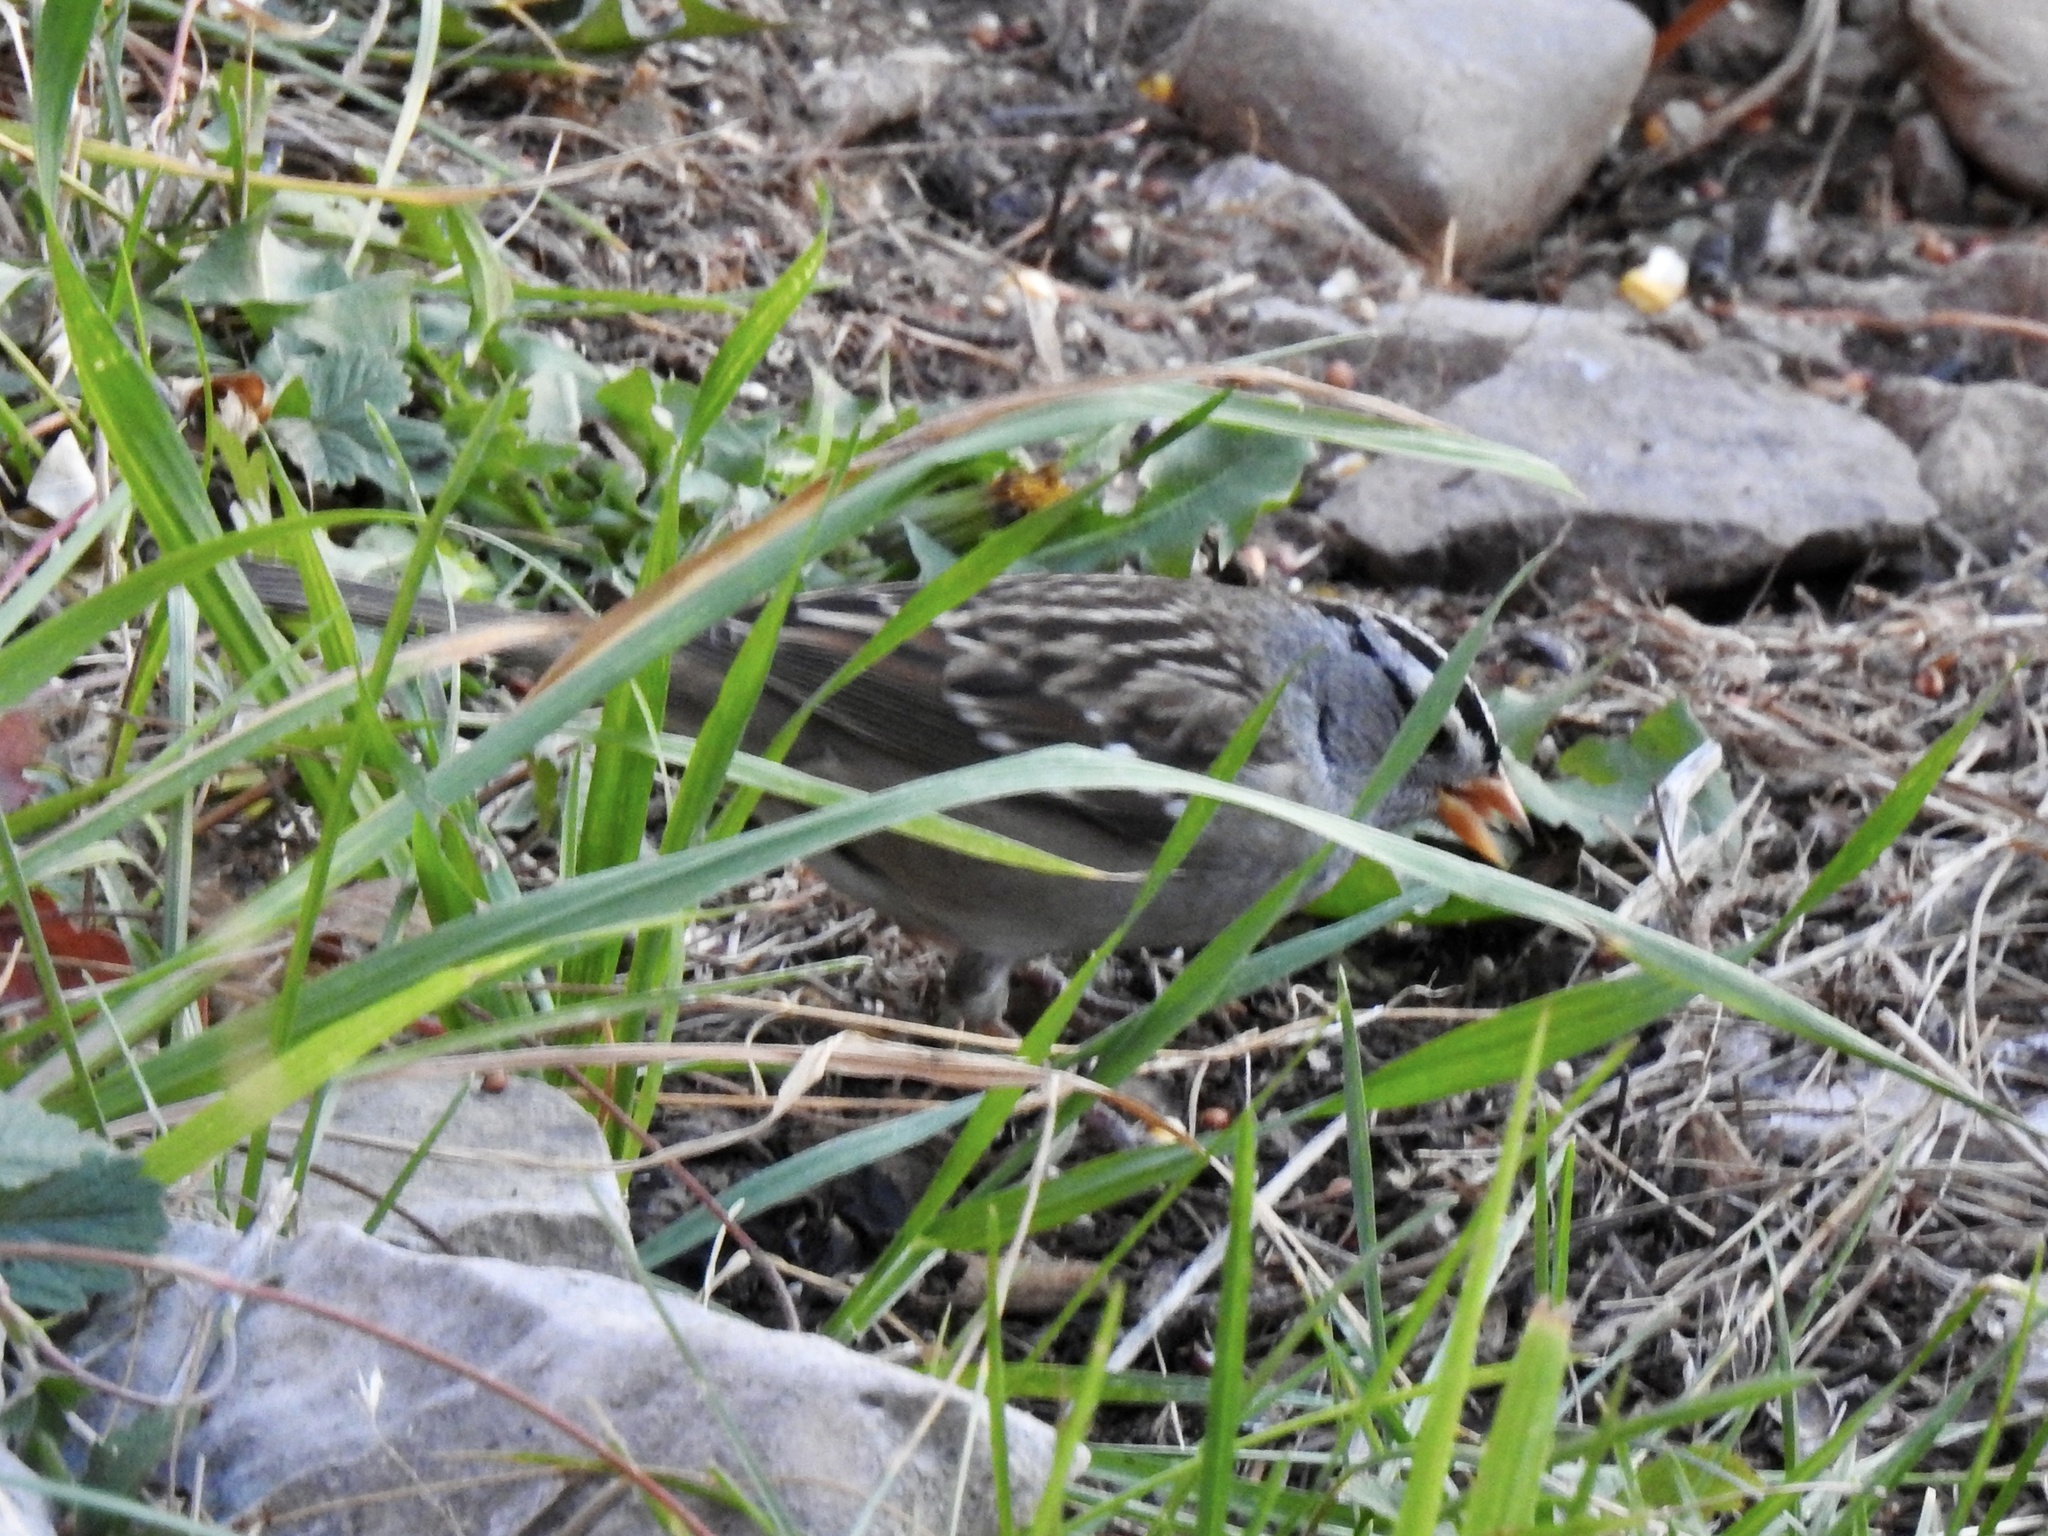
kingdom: Animalia
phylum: Chordata
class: Aves
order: Passeriformes
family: Passerellidae
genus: Zonotrichia
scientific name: Zonotrichia leucophrys
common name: White-crowned sparrow
